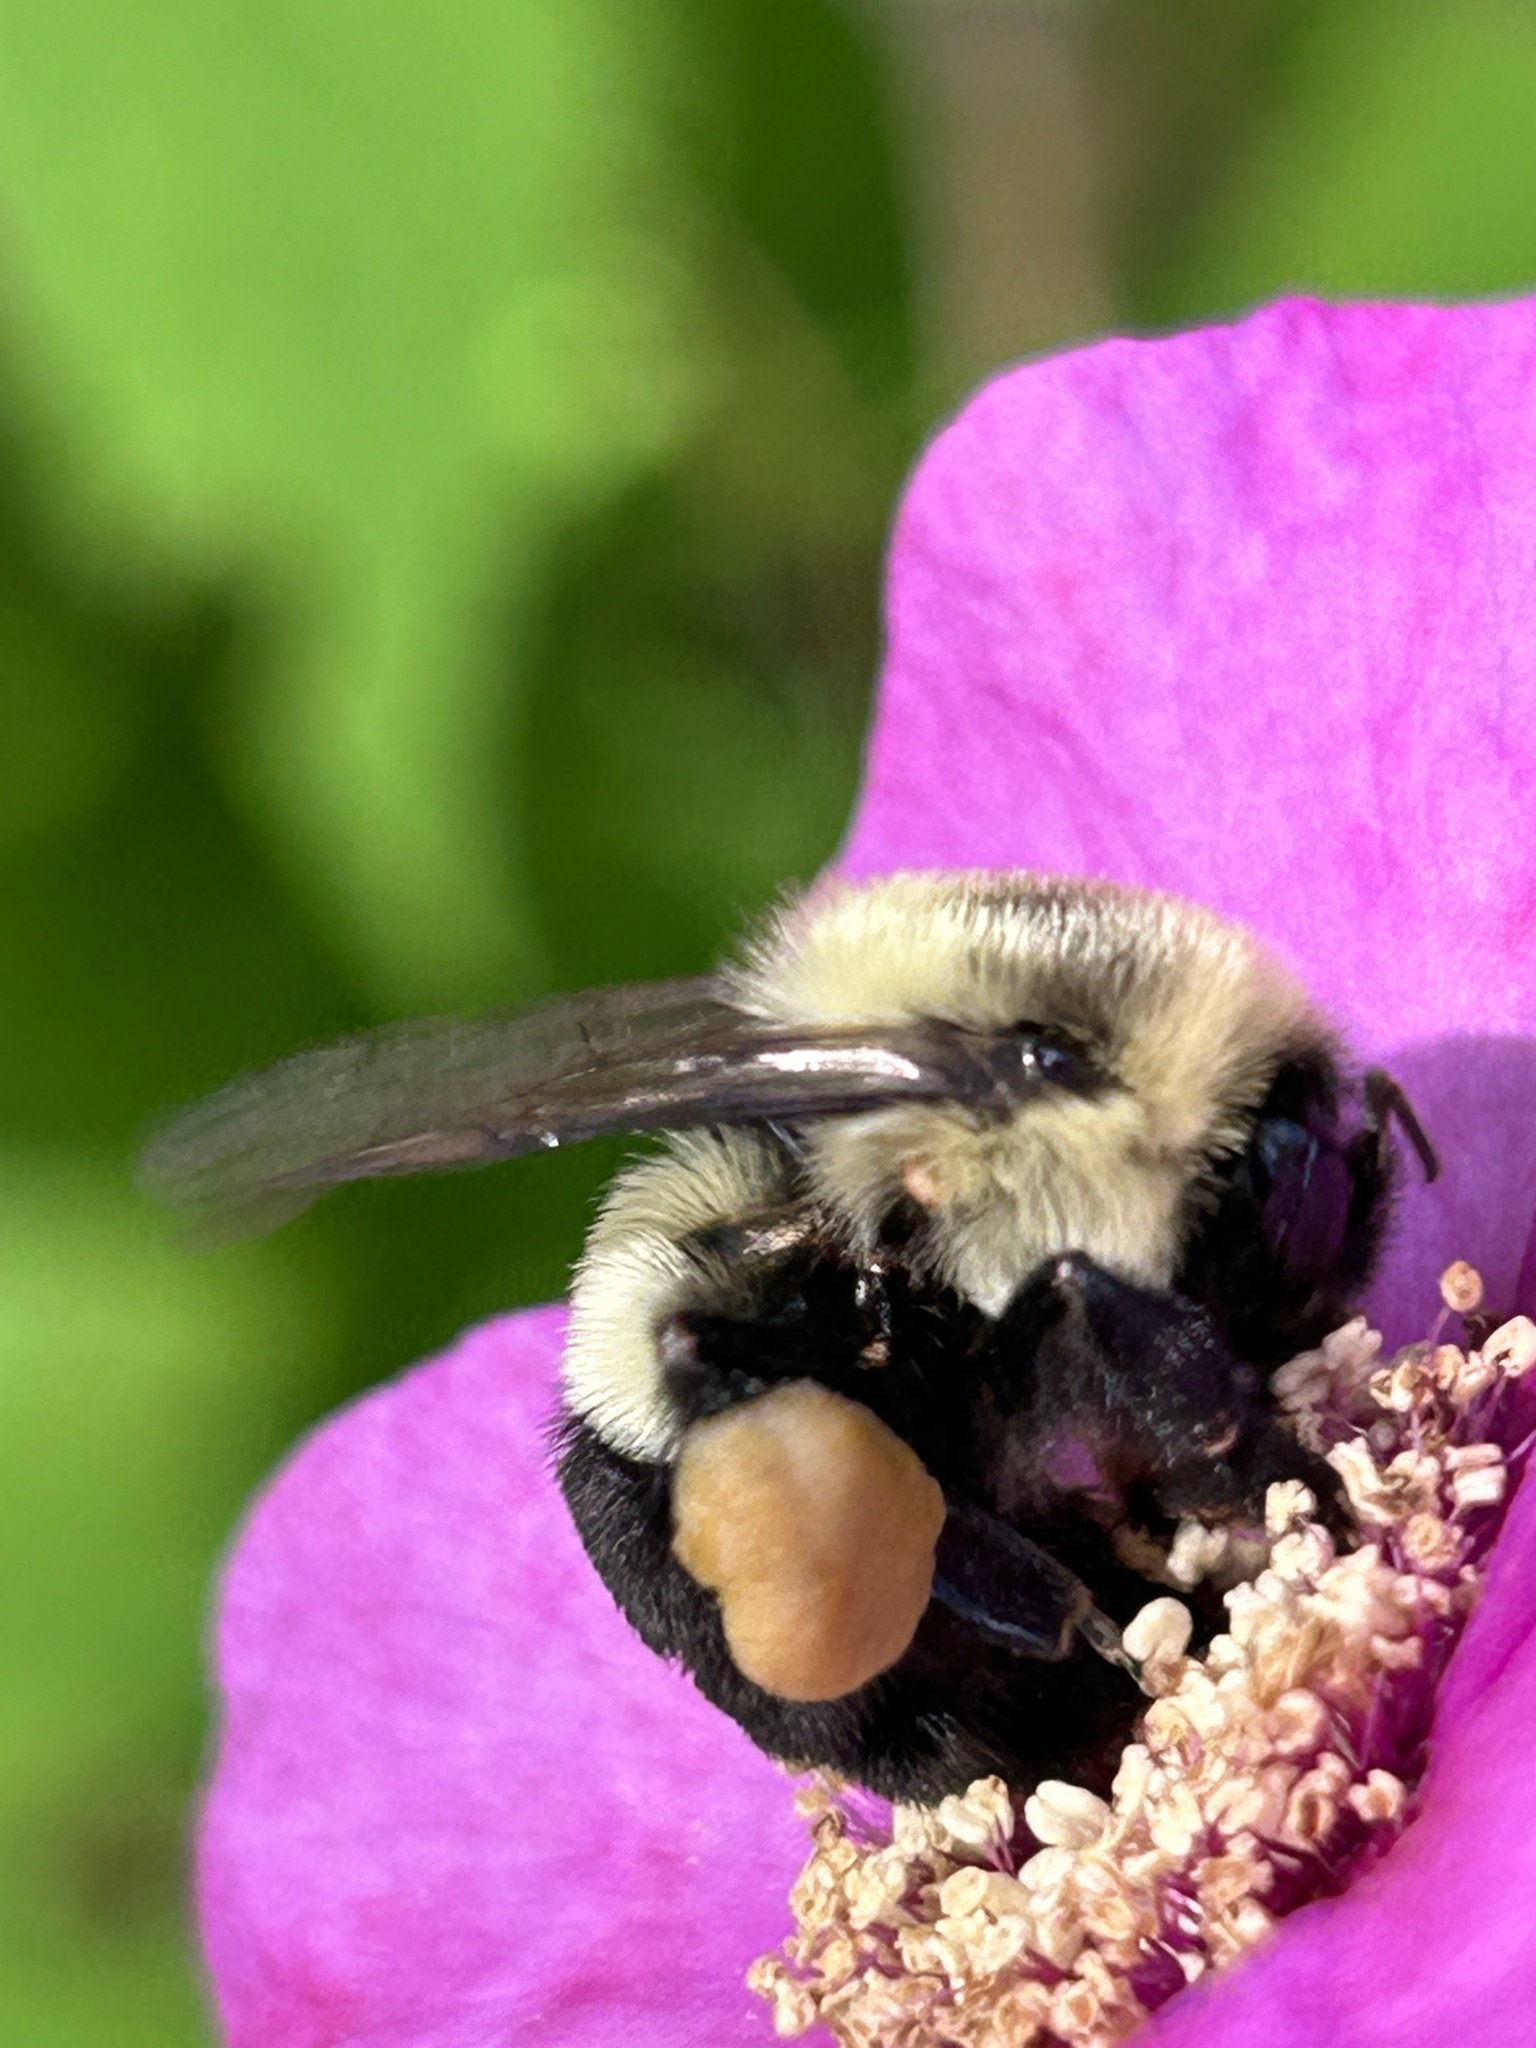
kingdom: Animalia
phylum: Arthropoda
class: Insecta
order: Hymenoptera
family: Apidae
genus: Bombus
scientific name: Bombus impatiens
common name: Common eastern bumble bee
